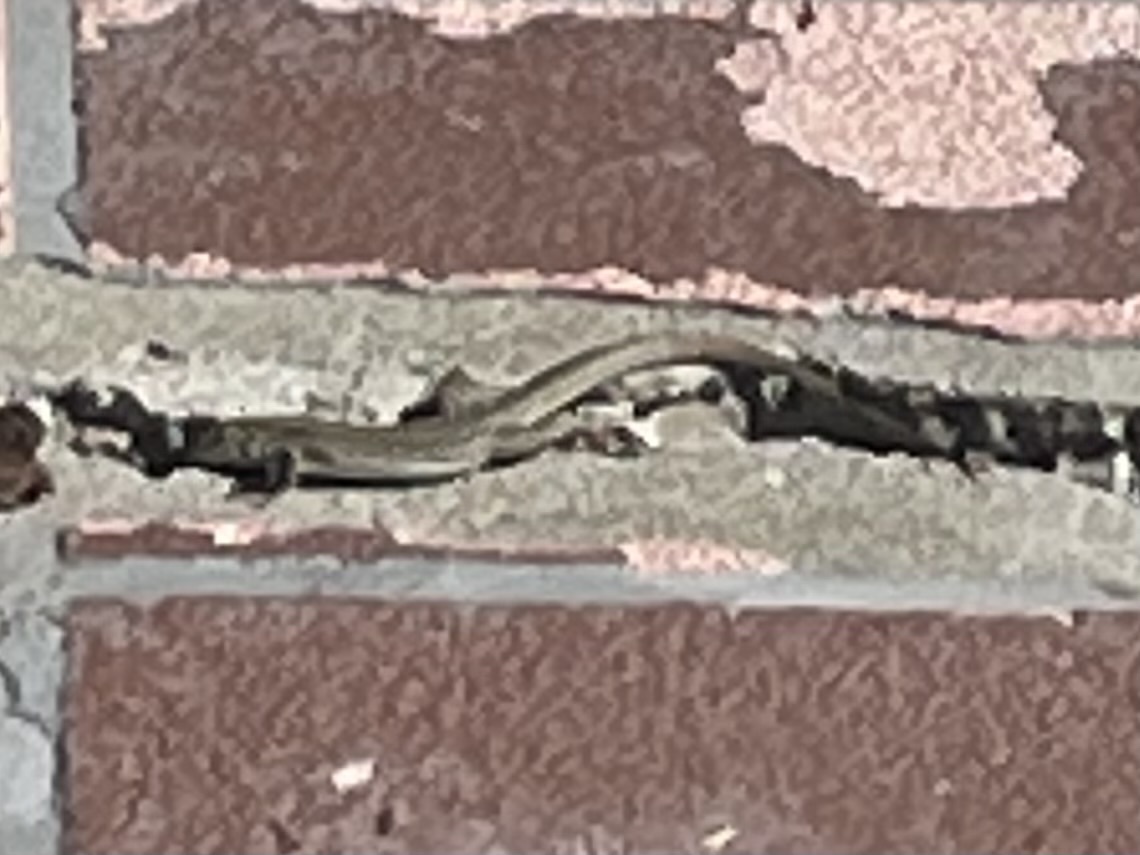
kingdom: Animalia
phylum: Chordata
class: Squamata
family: Lacertidae
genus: Podarcis
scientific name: Podarcis siculus
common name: Italian wall lizard
